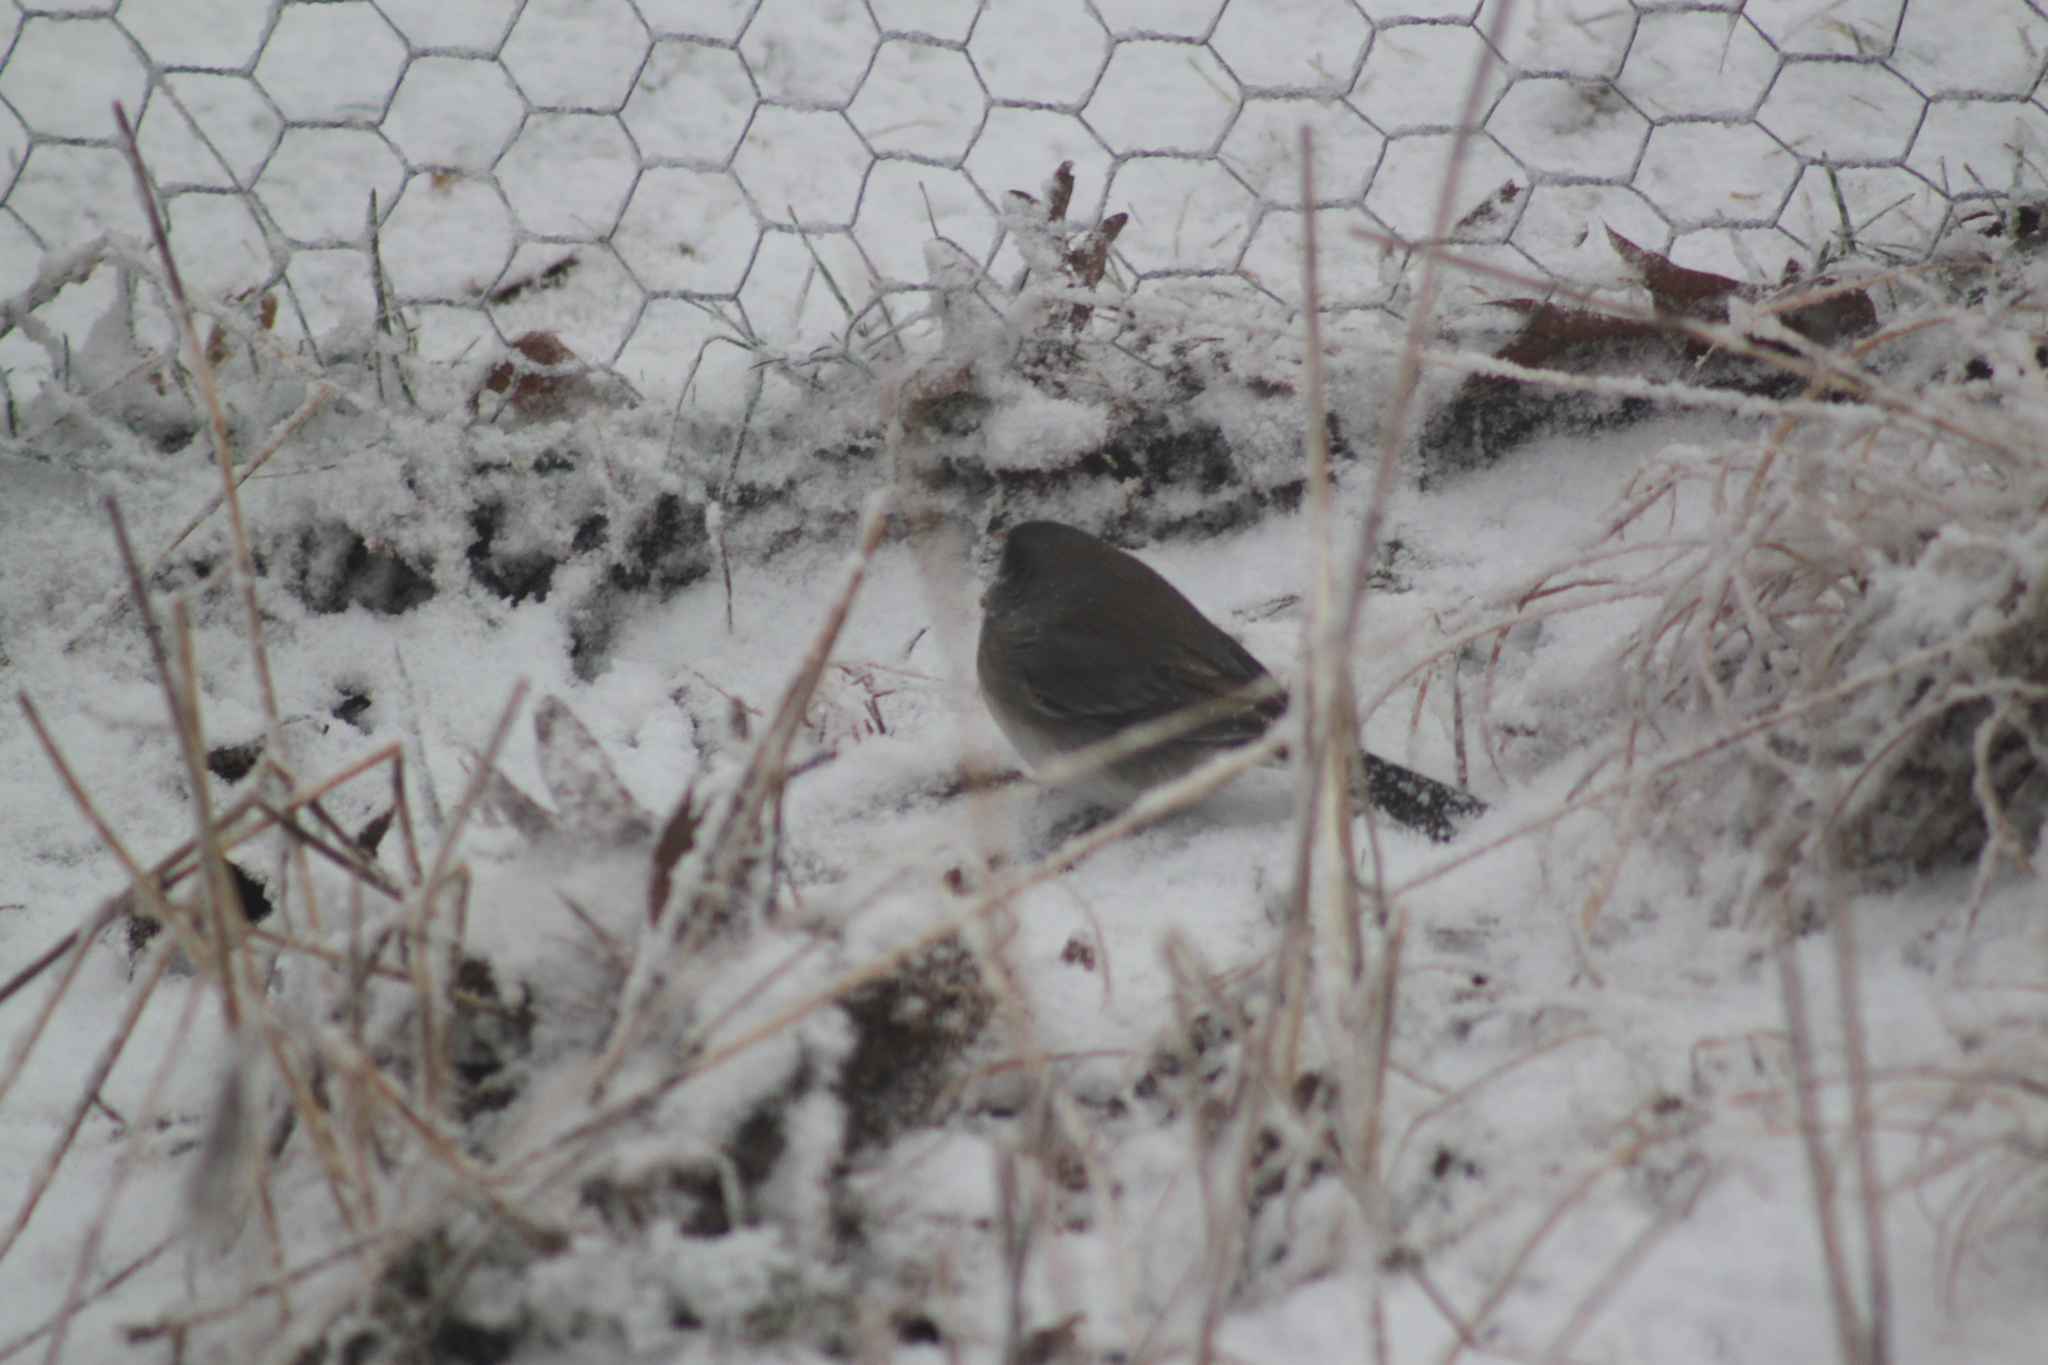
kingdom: Animalia
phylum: Chordata
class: Aves
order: Passeriformes
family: Passerellidae
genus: Junco
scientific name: Junco hyemalis
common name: Dark-eyed junco
